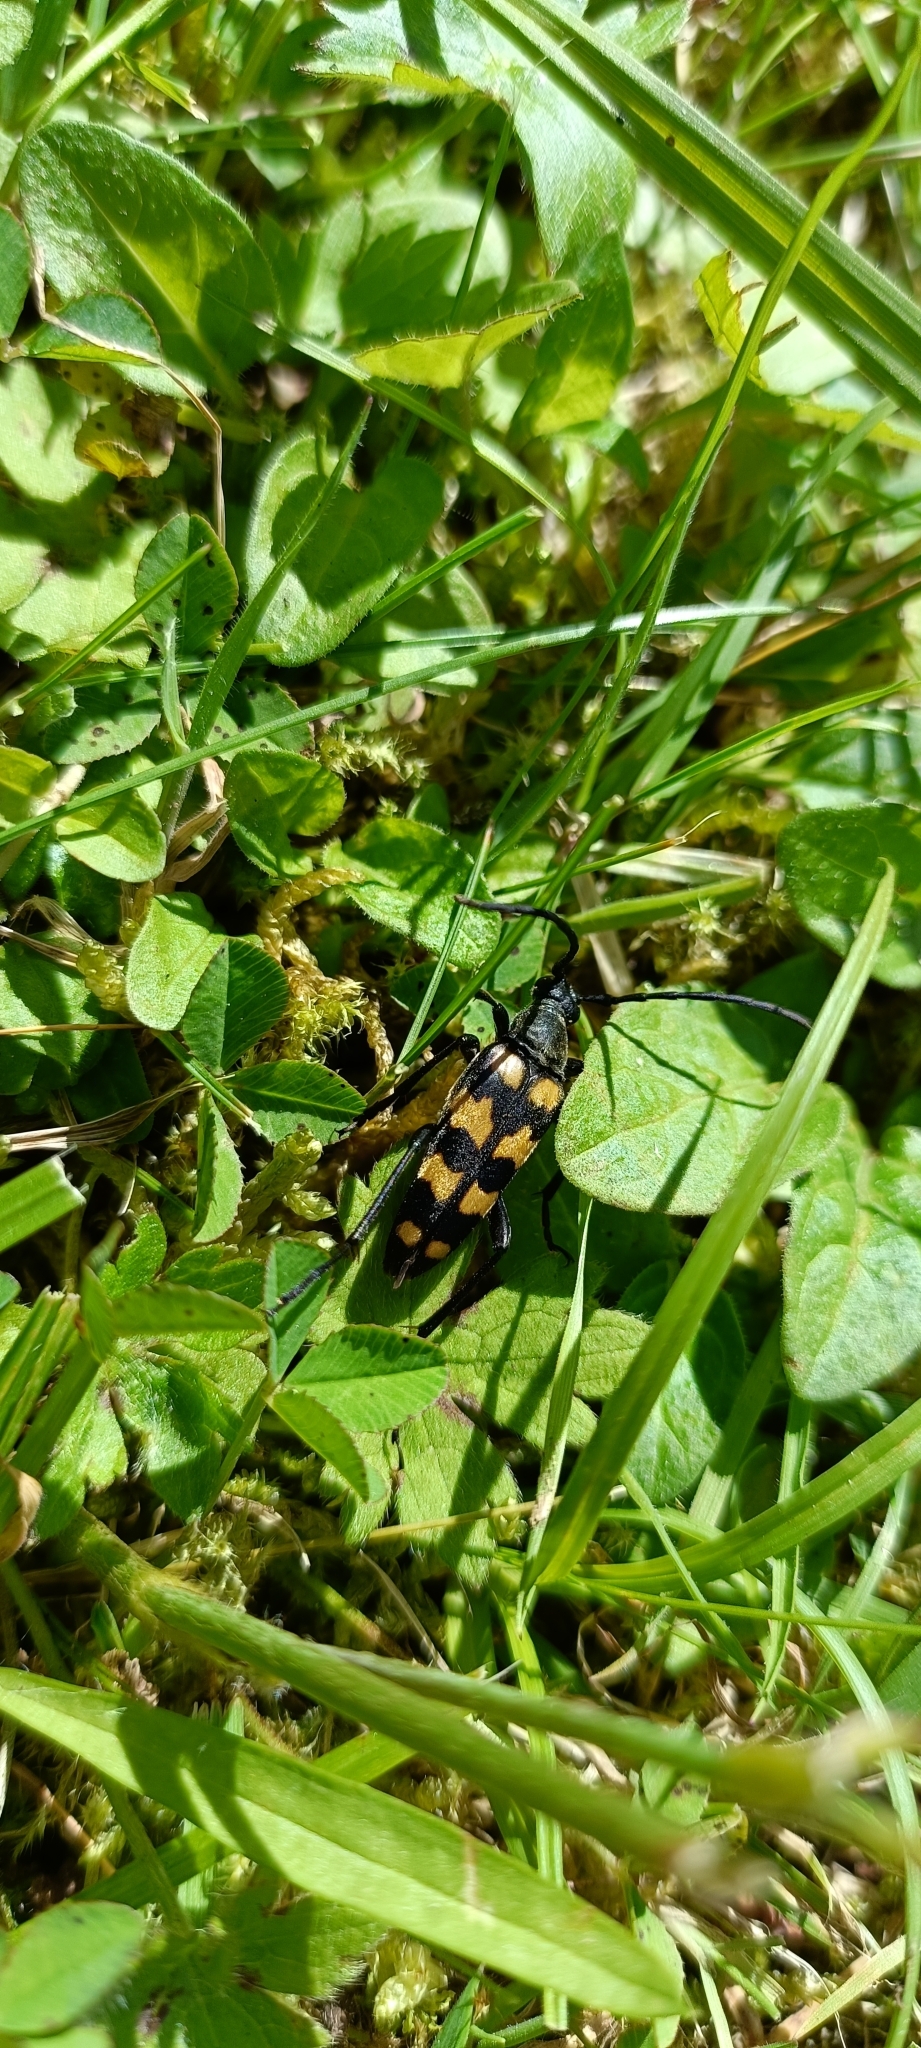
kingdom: Animalia
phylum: Arthropoda
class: Insecta
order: Coleoptera
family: Cerambycidae
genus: Leptura
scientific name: Leptura quadrifasciata
